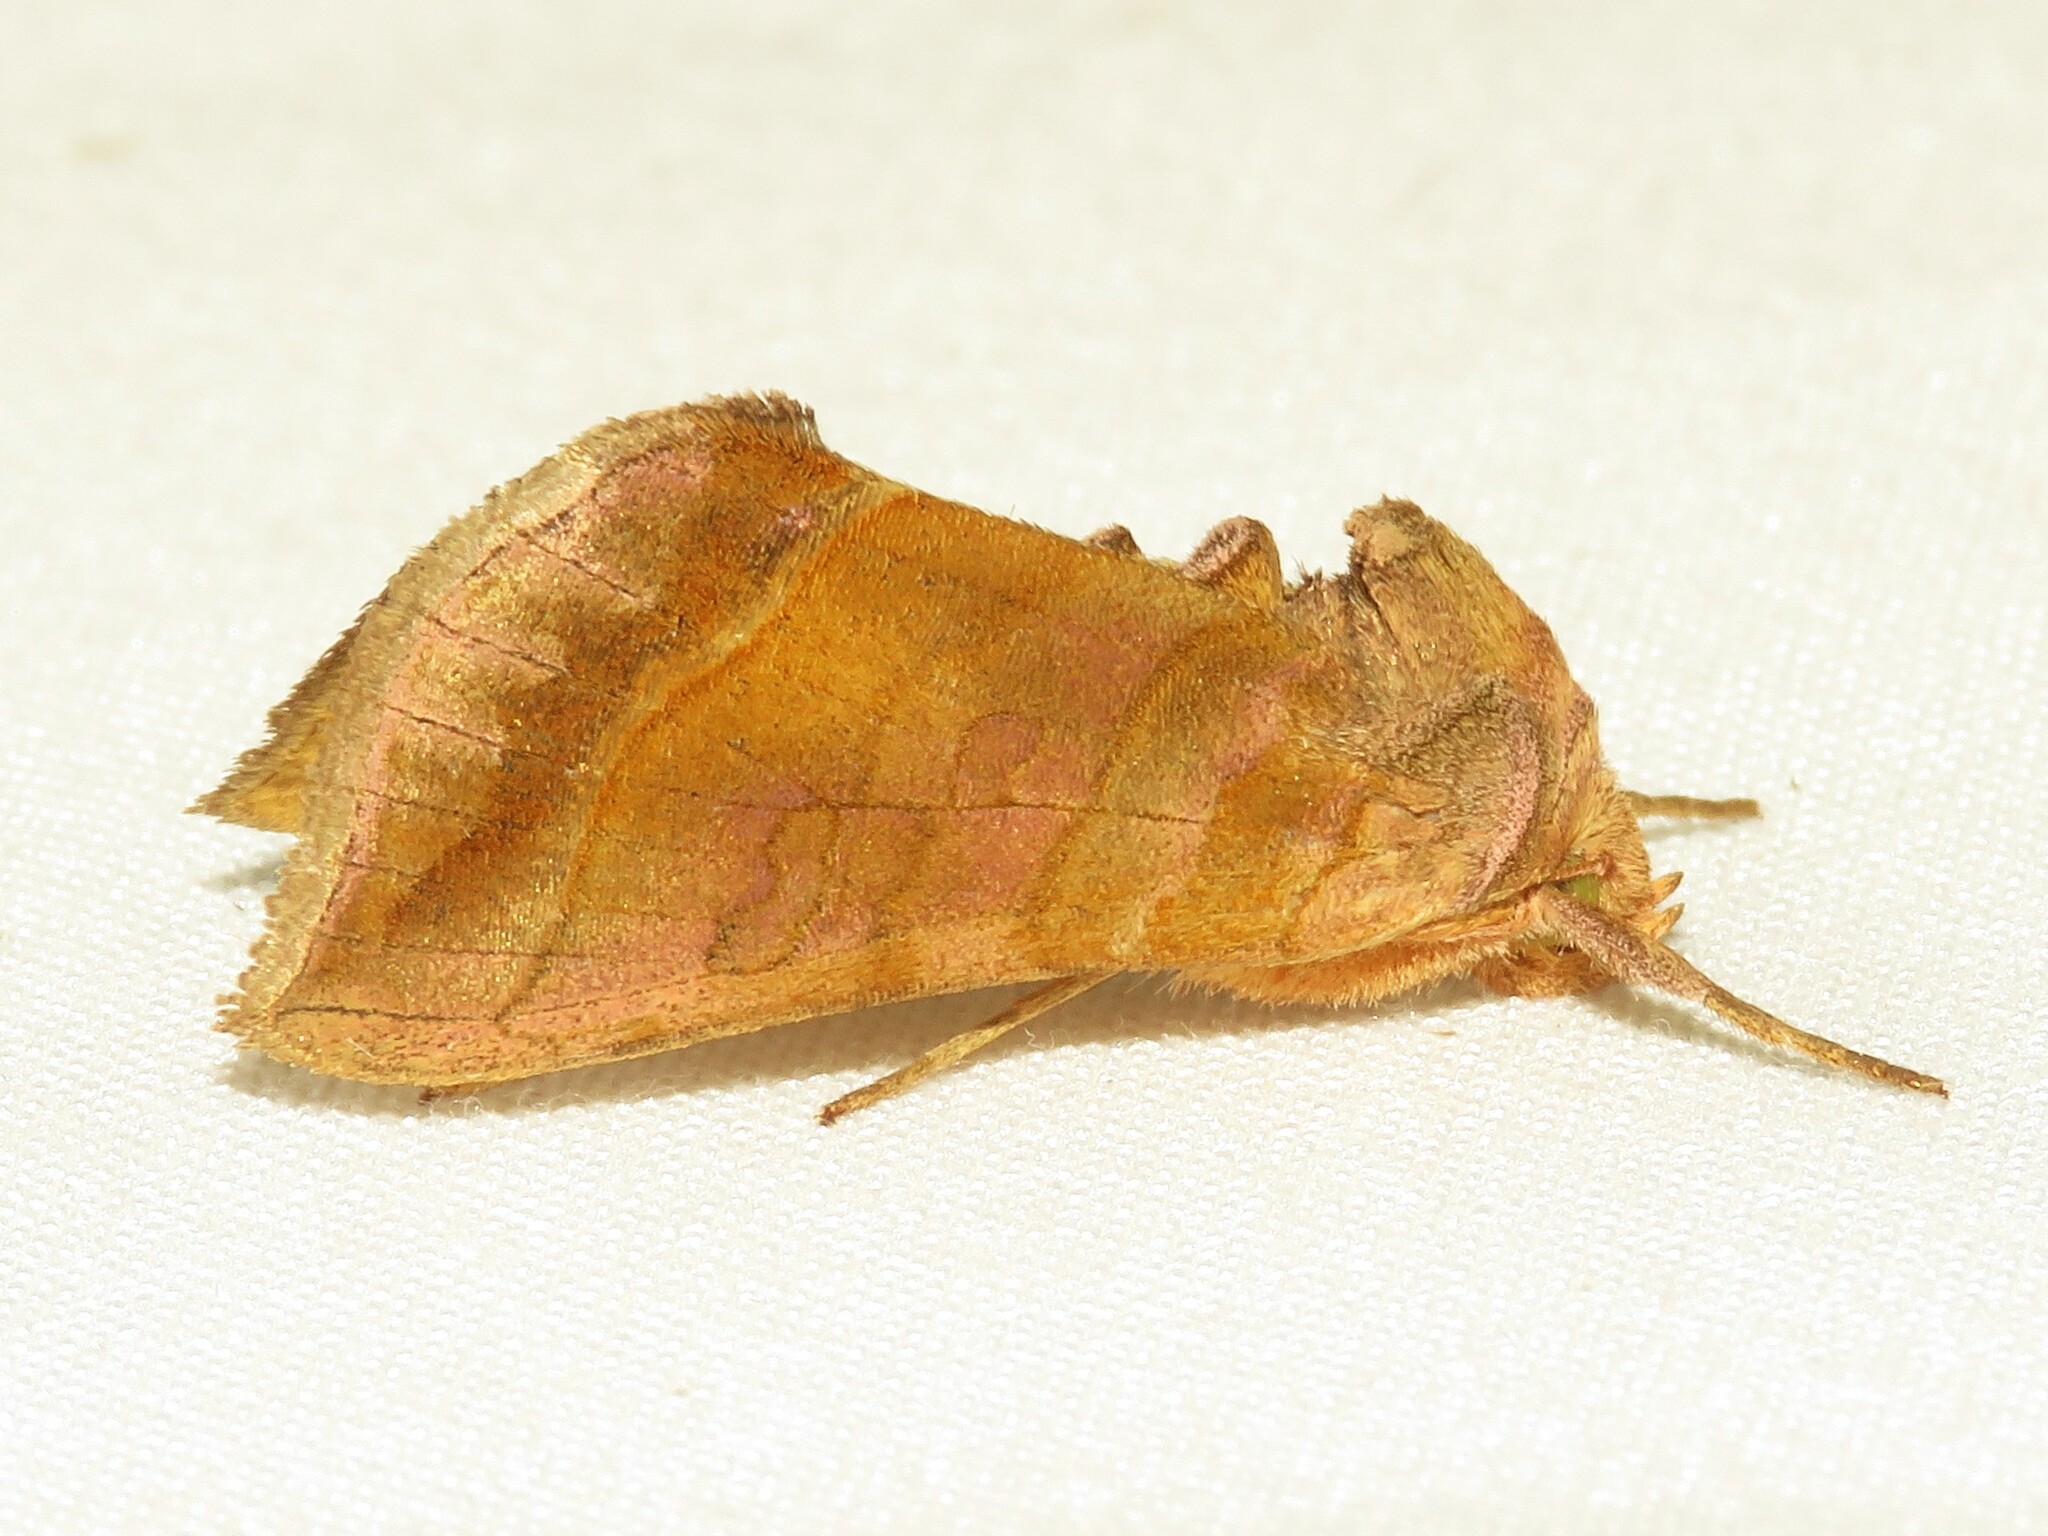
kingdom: Animalia
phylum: Arthropoda
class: Insecta
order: Lepidoptera
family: Noctuidae
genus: Diachrysia
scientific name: Diachrysia aereoides
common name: Dark-spotted looper moth
